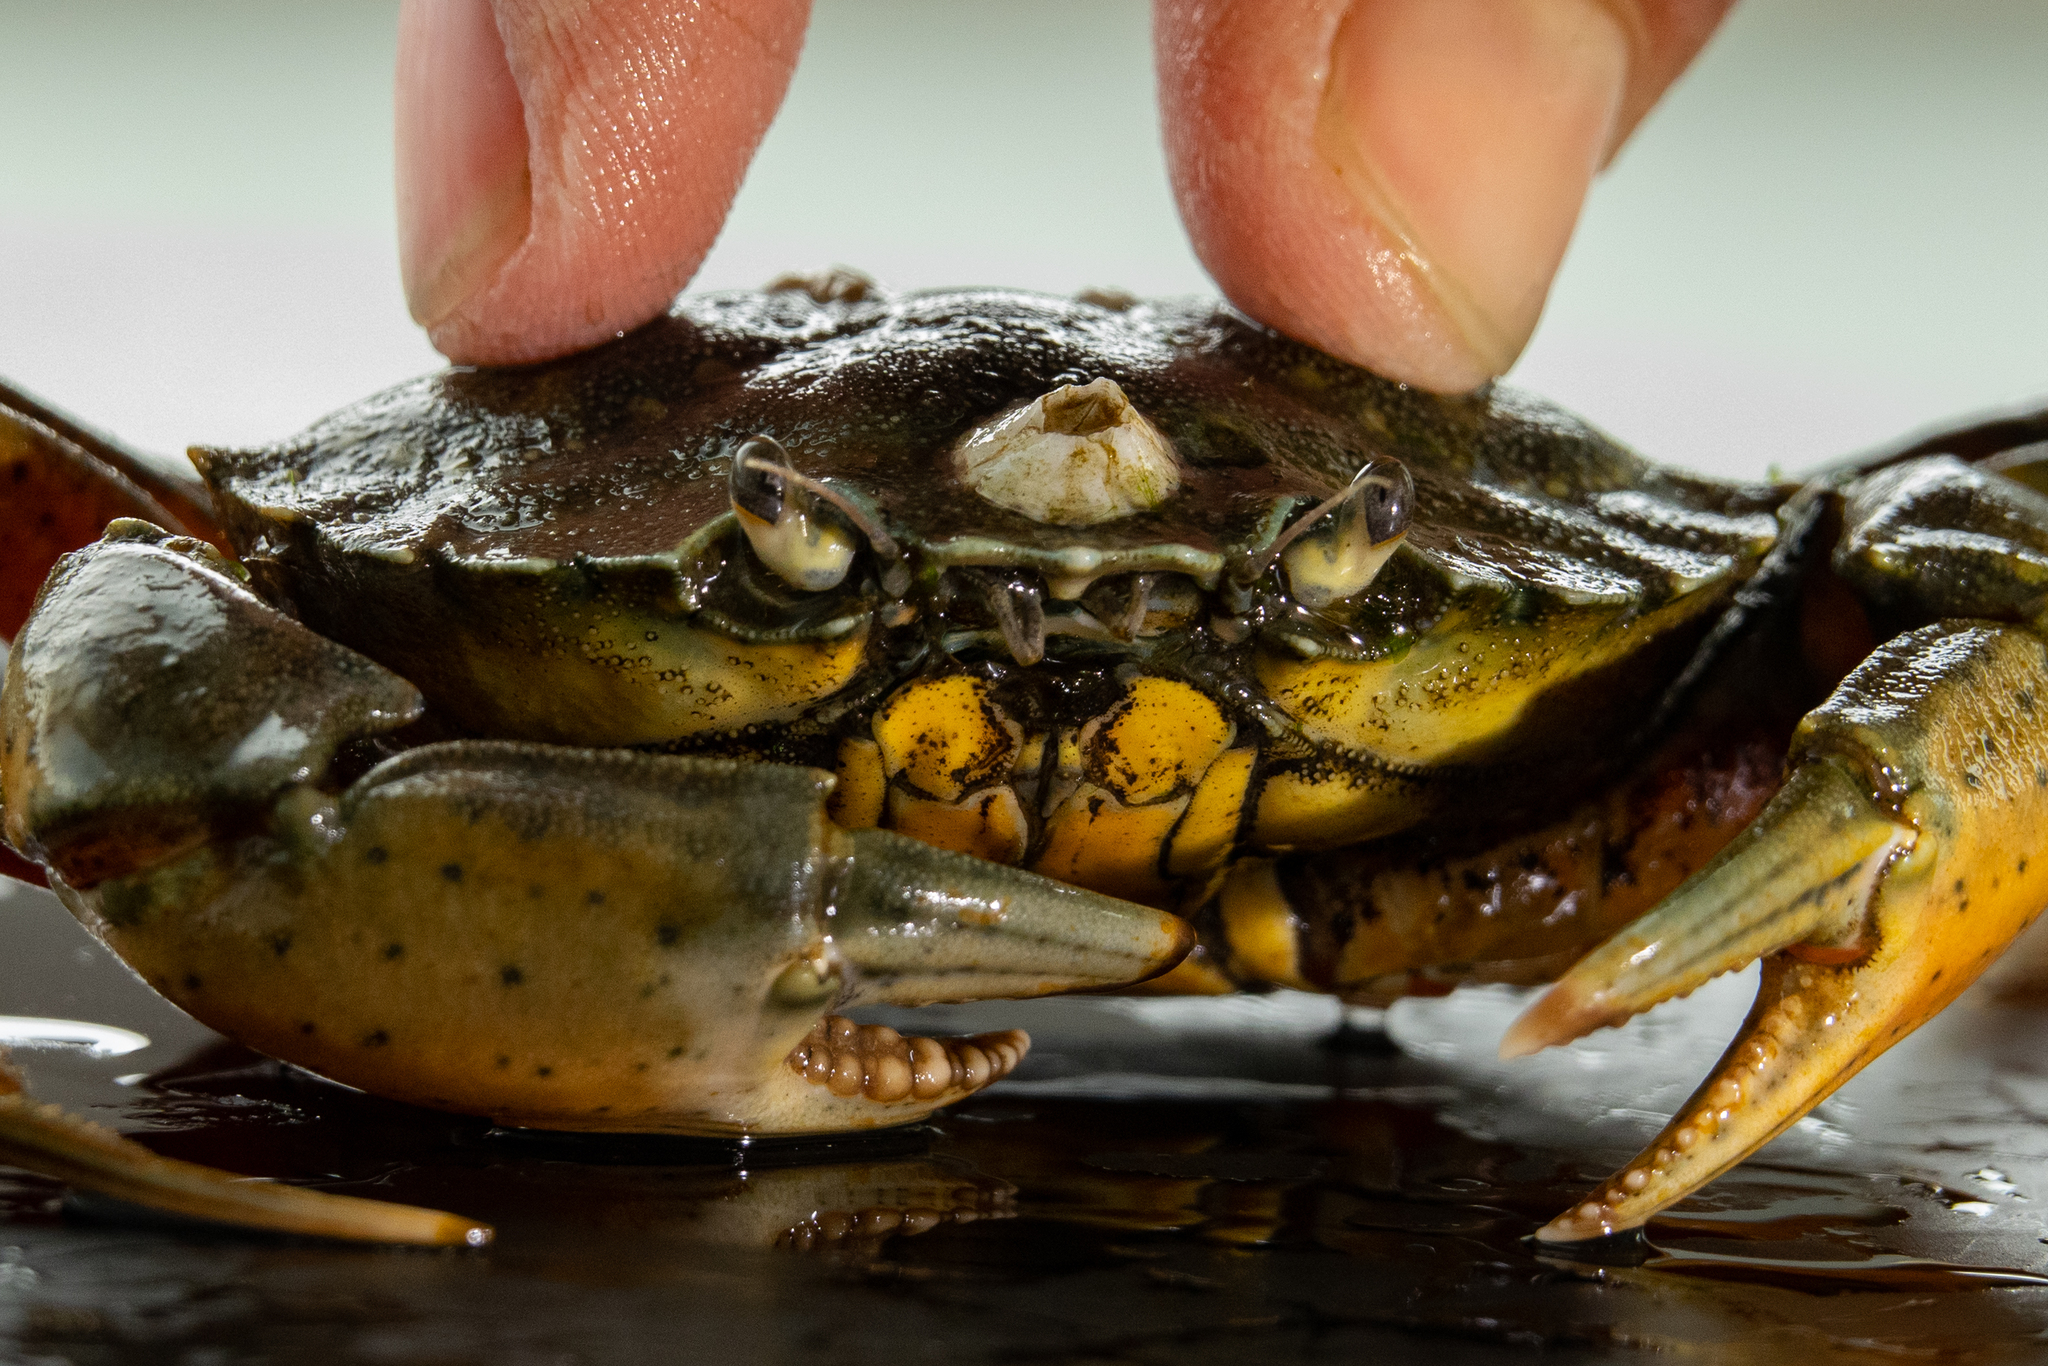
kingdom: Animalia
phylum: Arthropoda
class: Malacostraca
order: Decapoda
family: Carcinidae
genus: Carcinus
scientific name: Carcinus maenas
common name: European green crab
